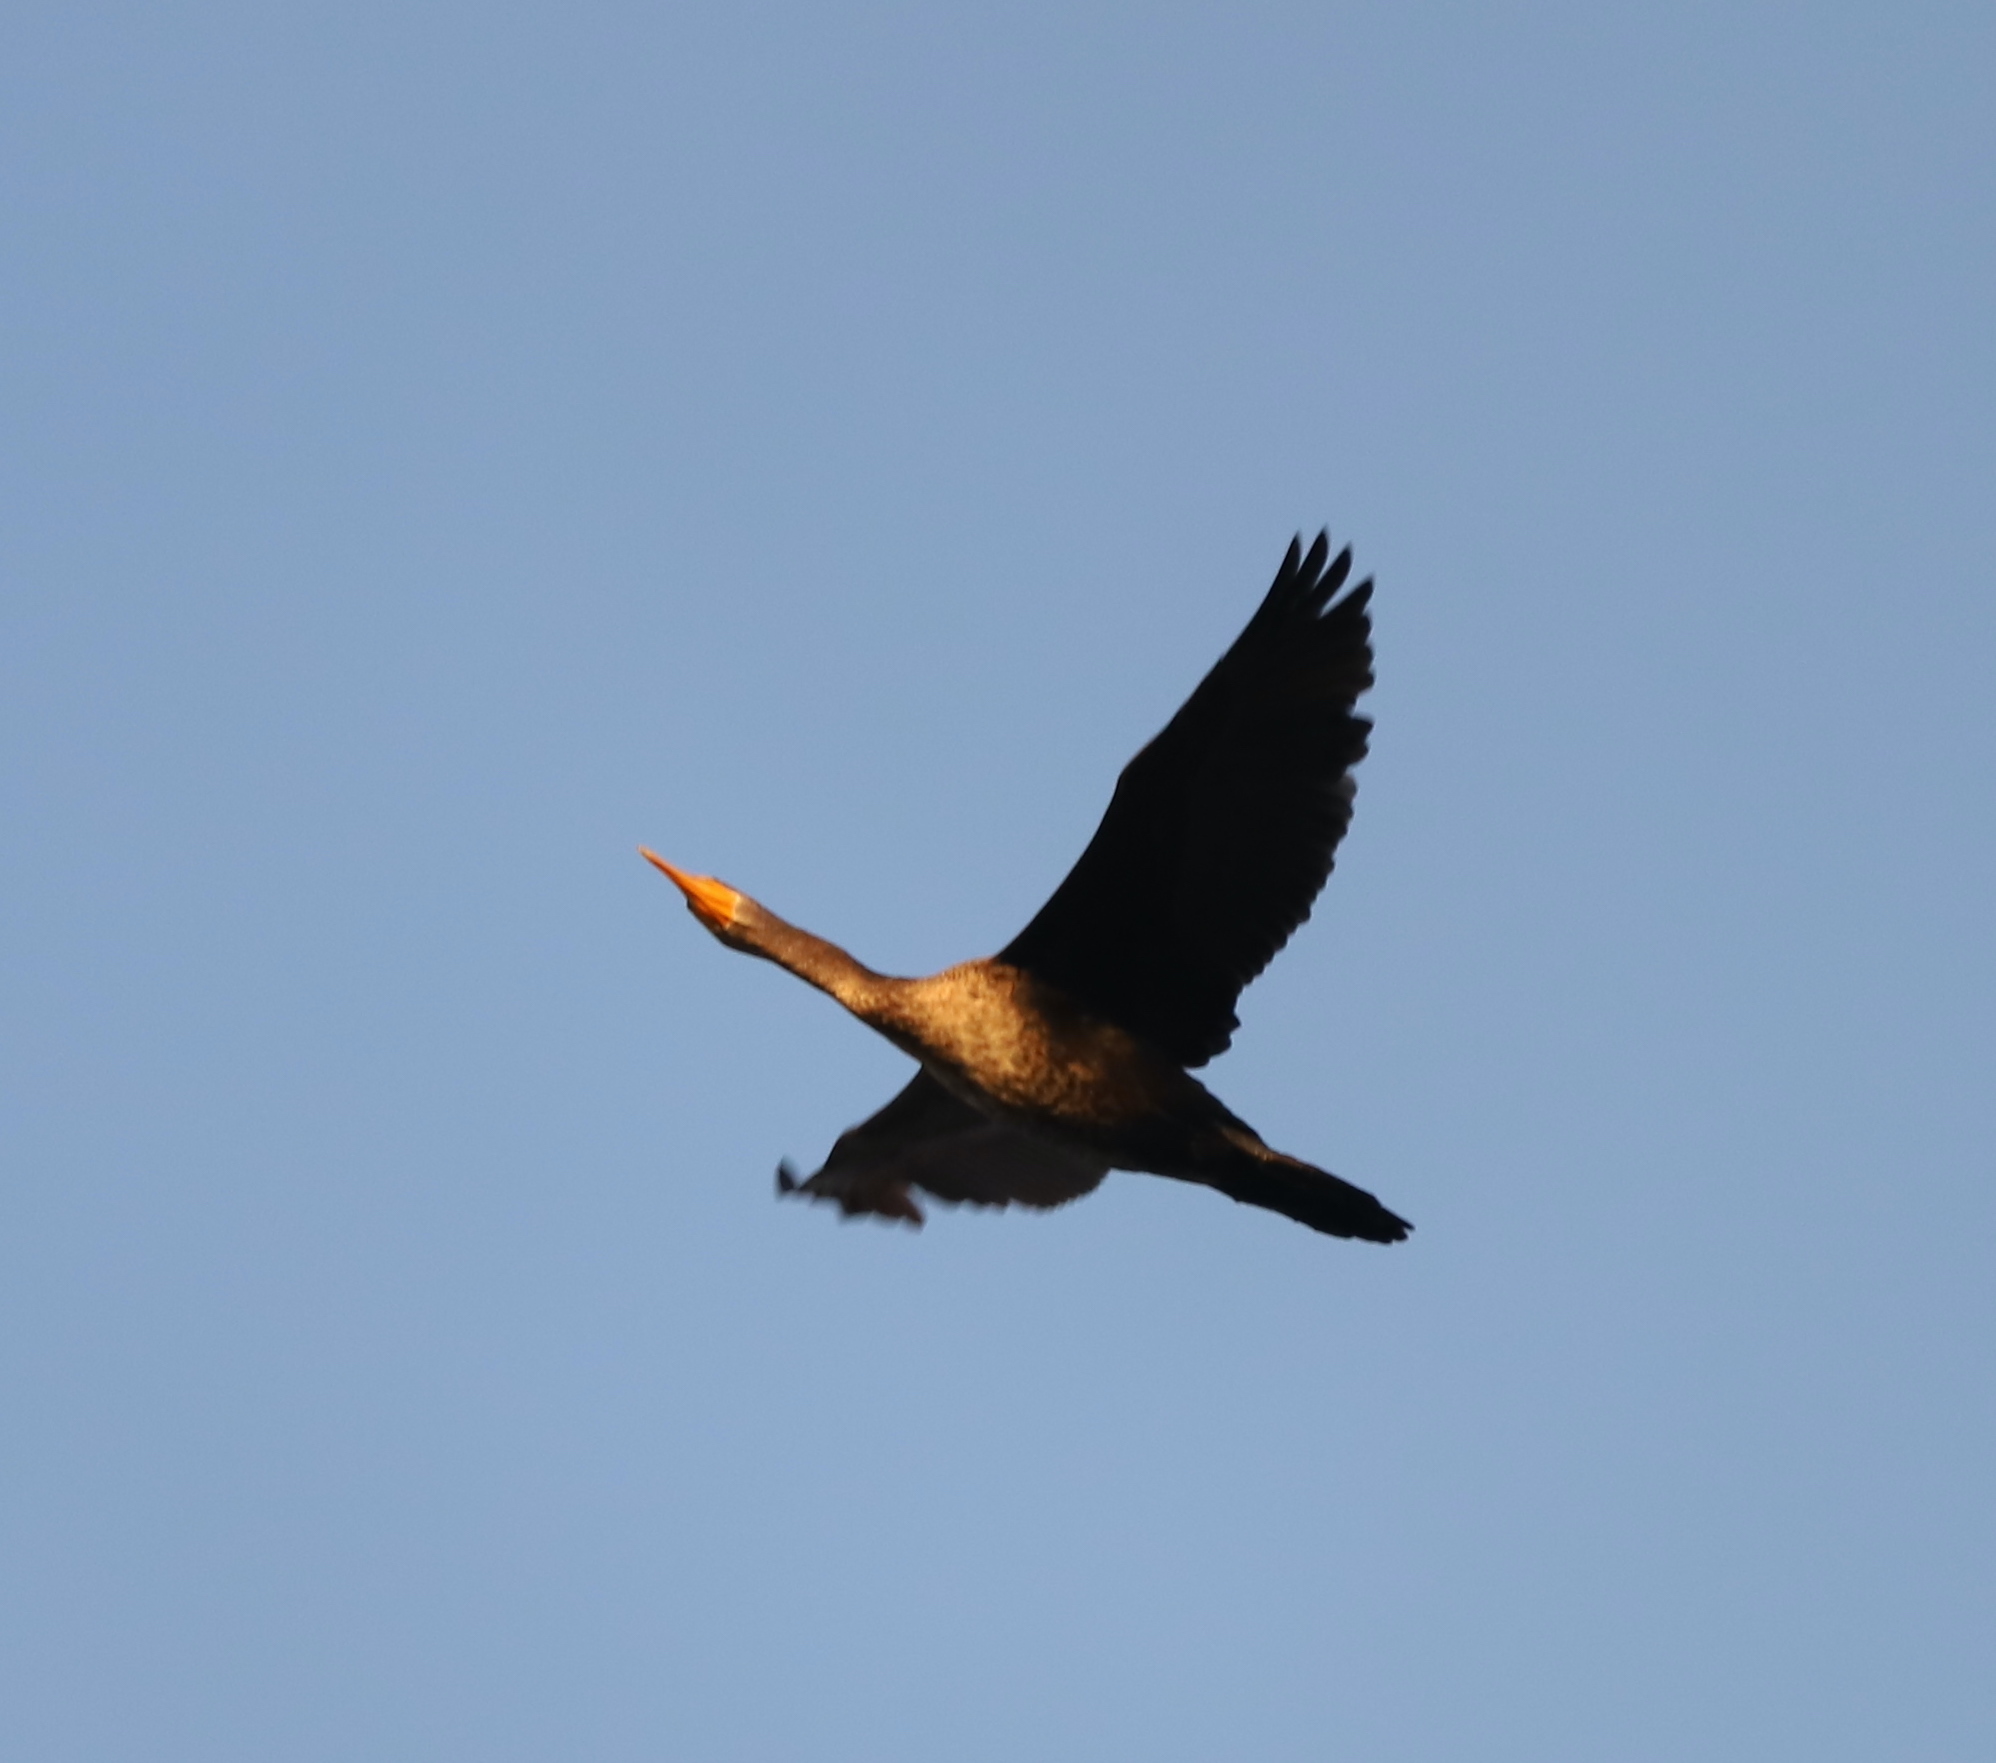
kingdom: Animalia
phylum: Chordata
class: Aves
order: Suliformes
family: Phalacrocoracidae
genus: Phalacrocorax
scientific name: Phalacrocorax auritus
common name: Double-crested cormorant
